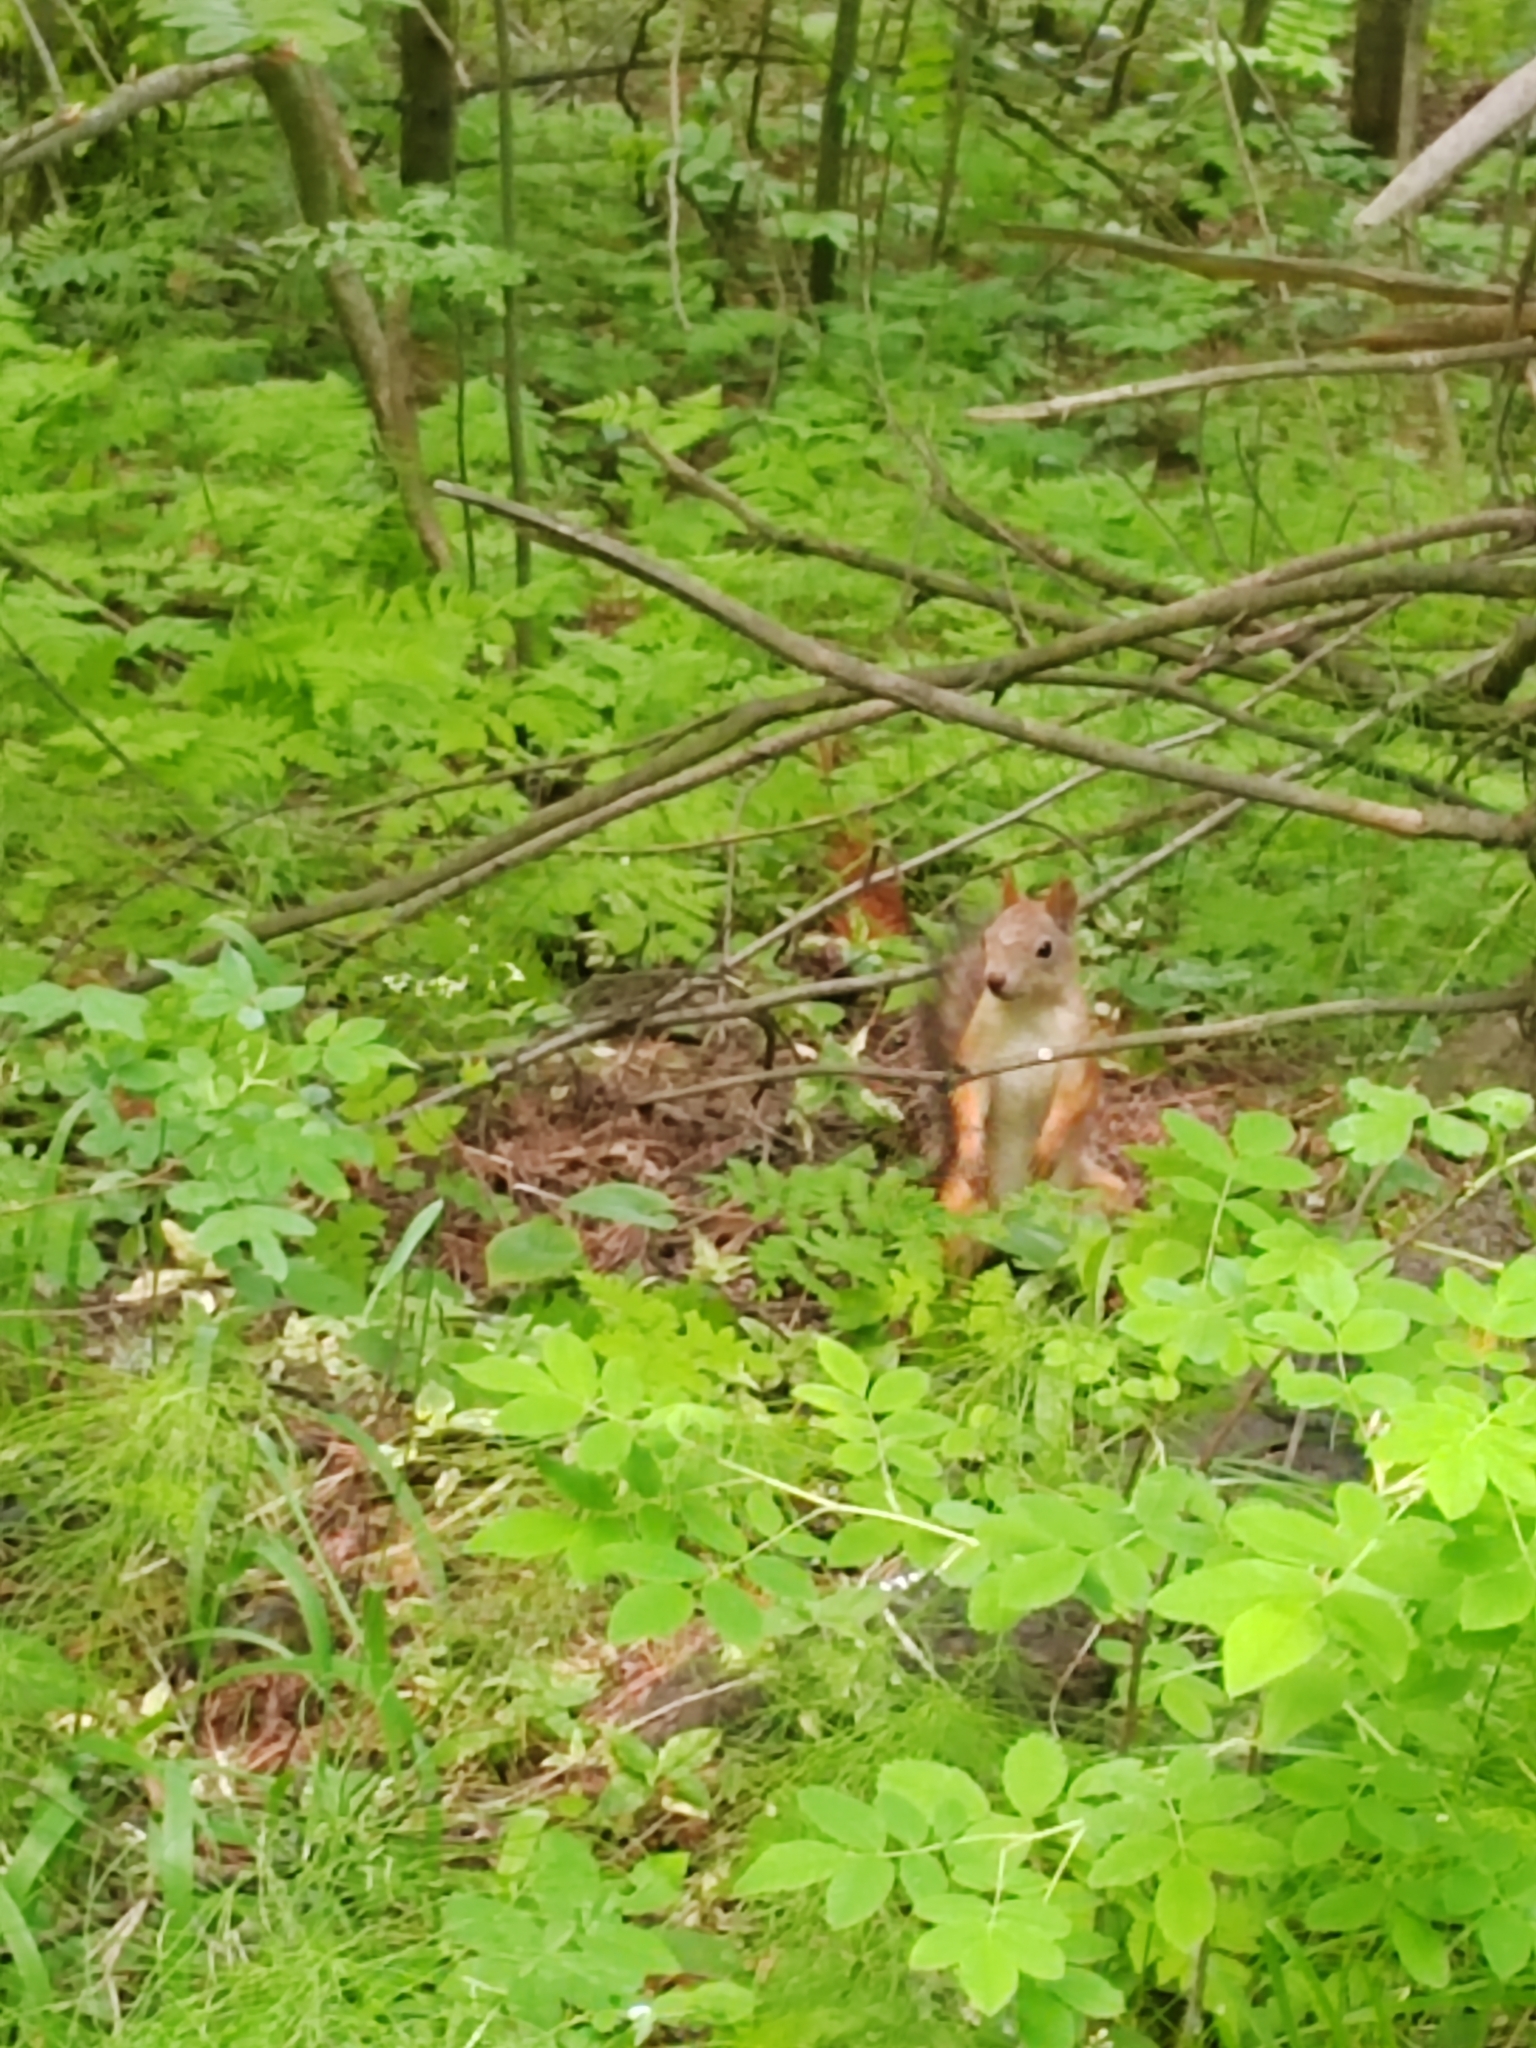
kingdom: Animalia
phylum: Chordata
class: Mammalia
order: Rodentia
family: Sciuridae
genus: Sciurus
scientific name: Sciurus vulgaris
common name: Eurasian red squirrel
